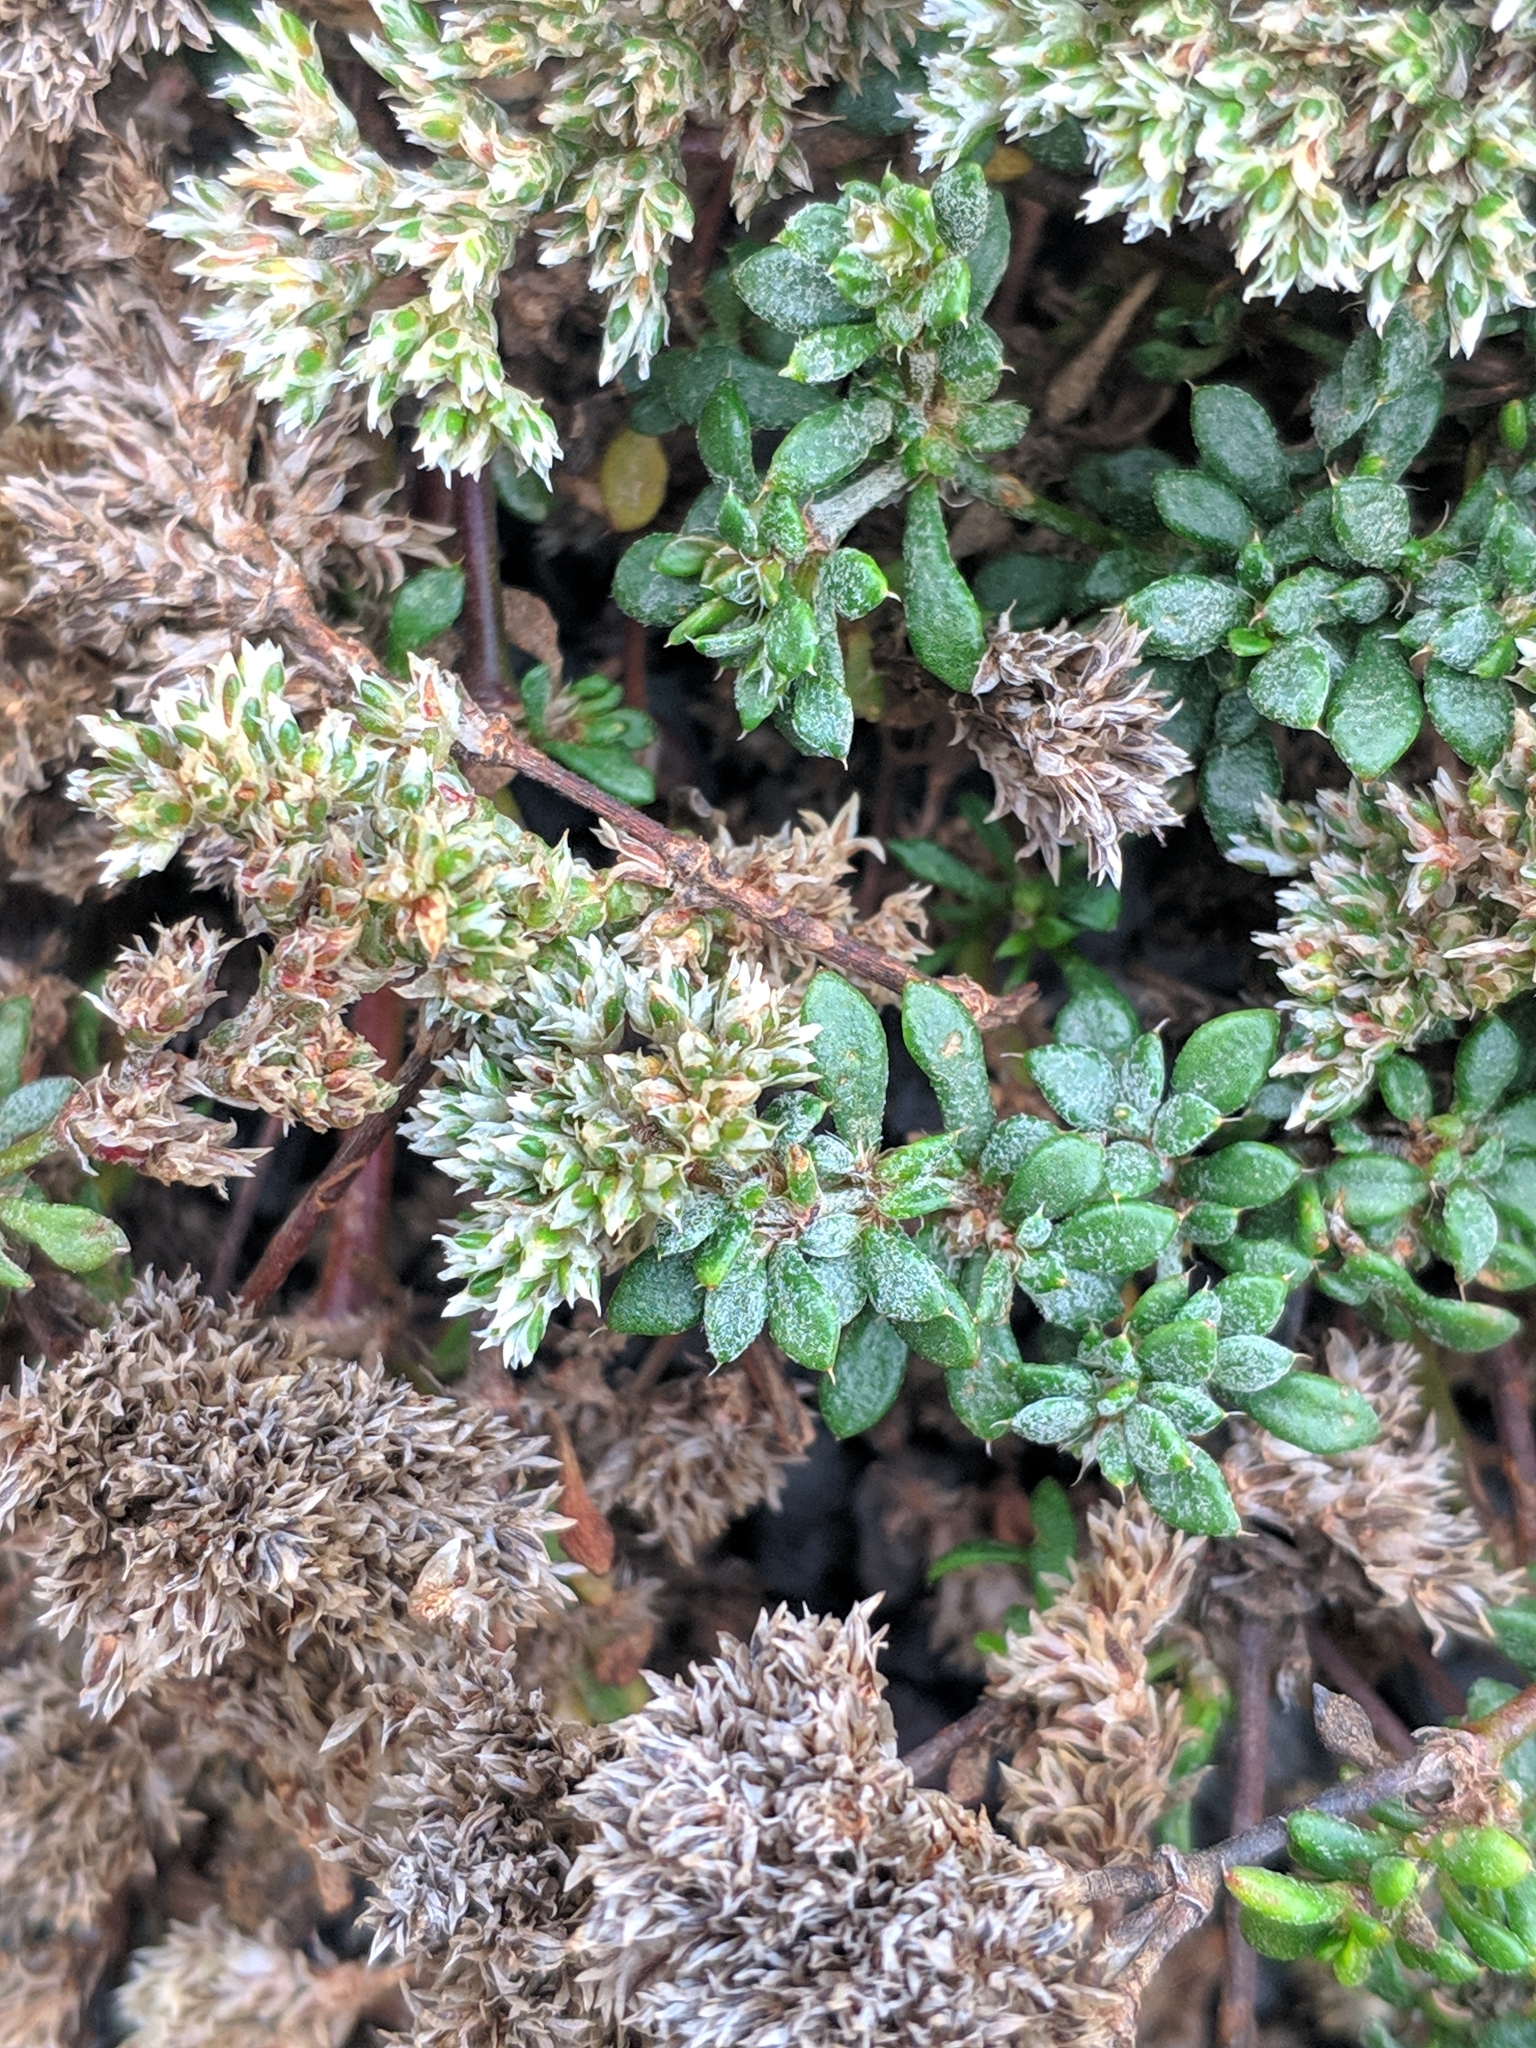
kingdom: Plantae
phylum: Tracheophyta
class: Magnoliopsida
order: Caryophyllales
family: Caryophyllaceae
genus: Polycarpaea
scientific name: Polycarpaea divaricata
